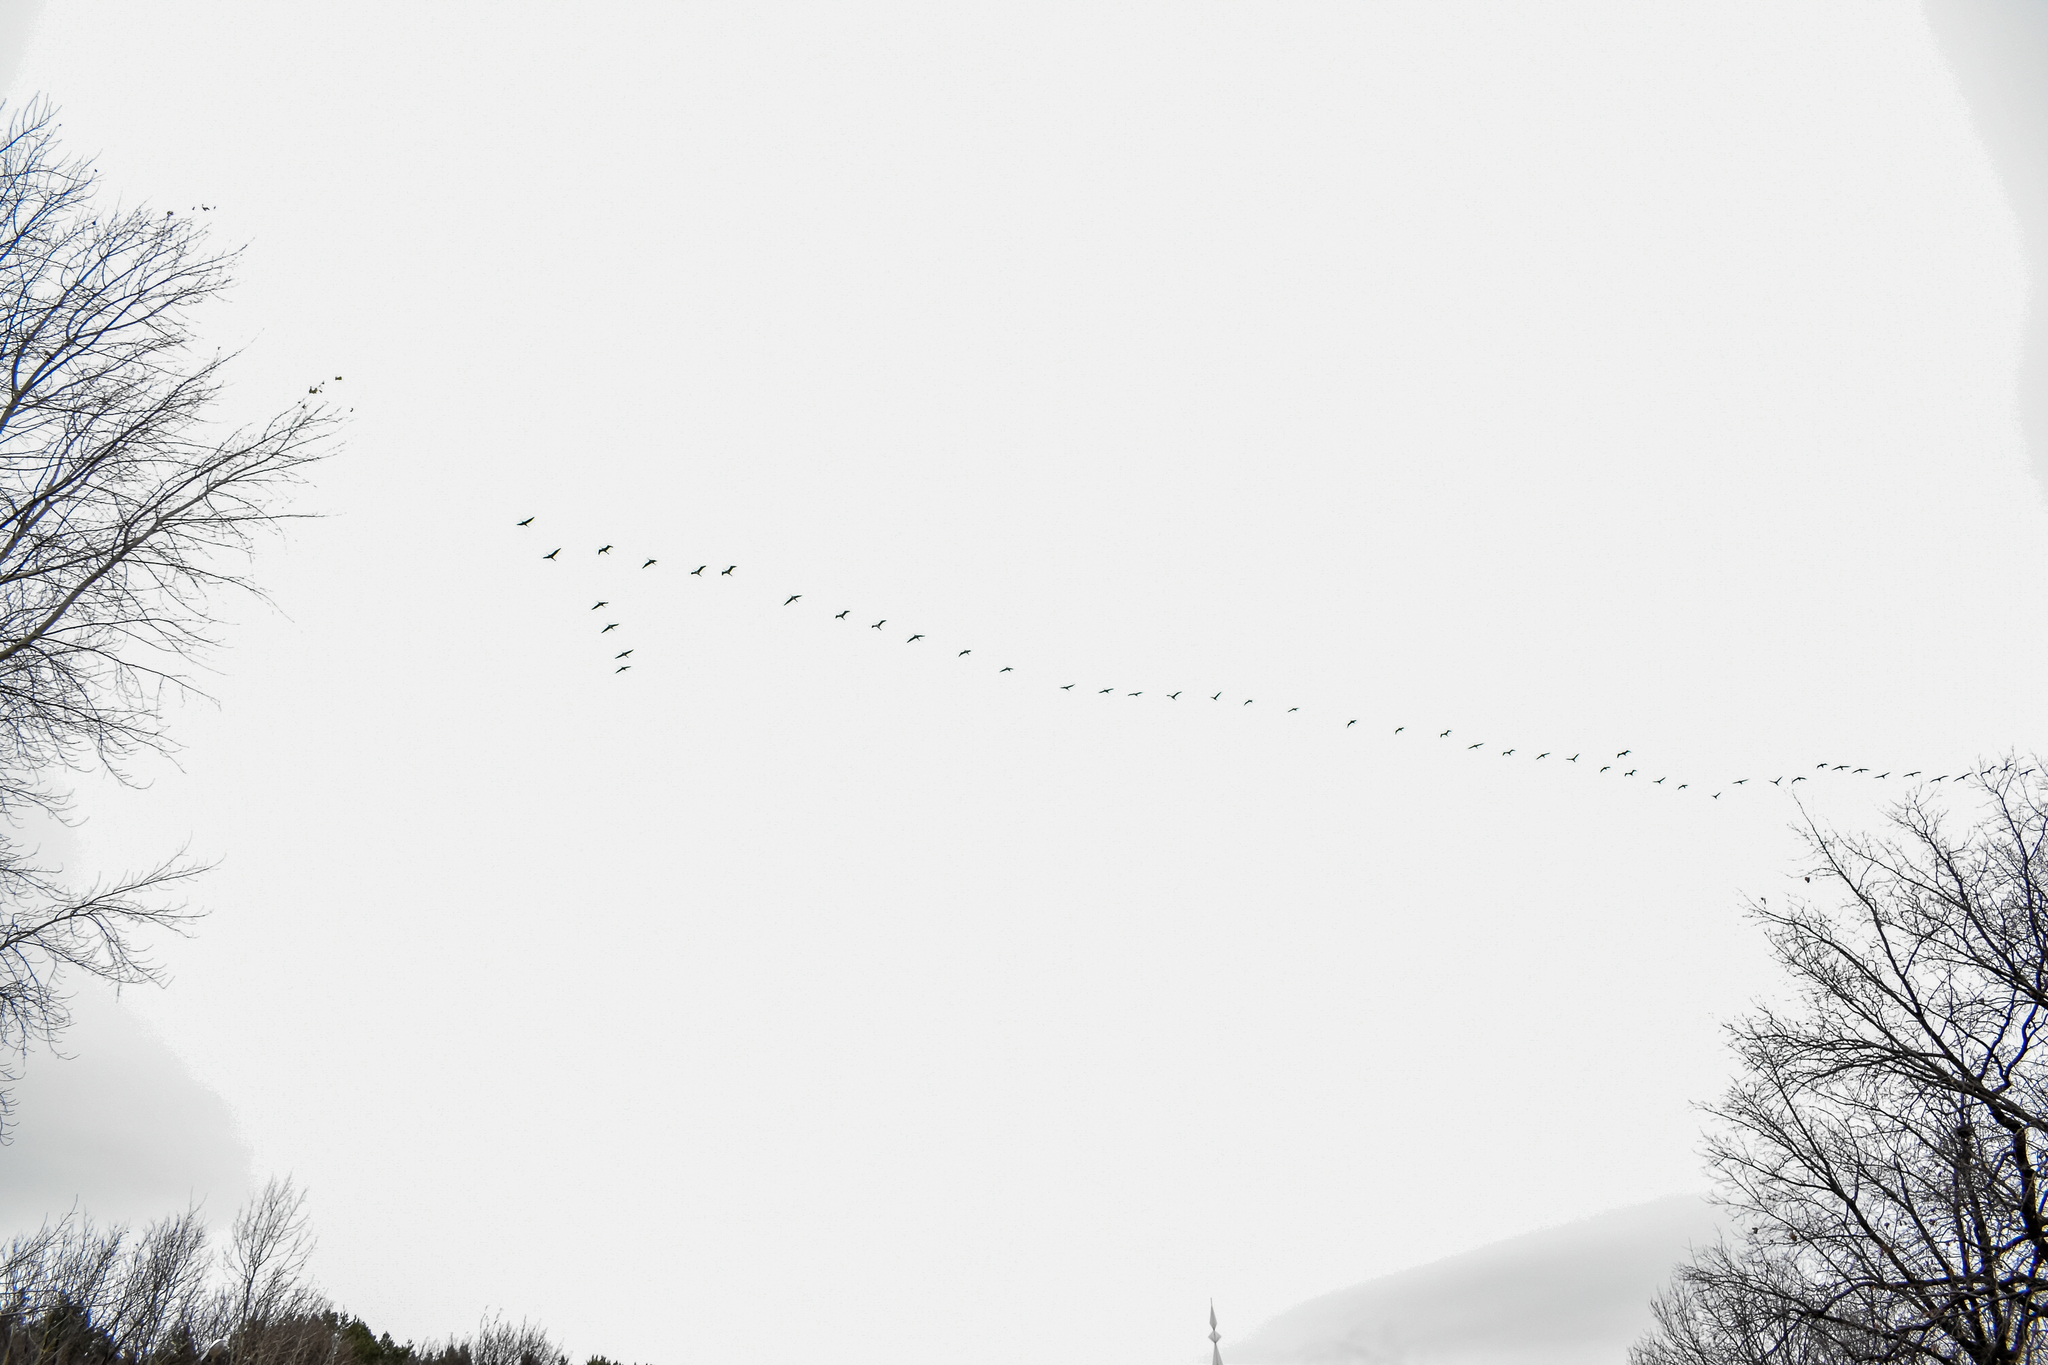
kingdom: Animalia
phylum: Chordata
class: Aves
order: Gruiformes
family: Gruidae
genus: Grus
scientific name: Grus grus
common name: Common crane
